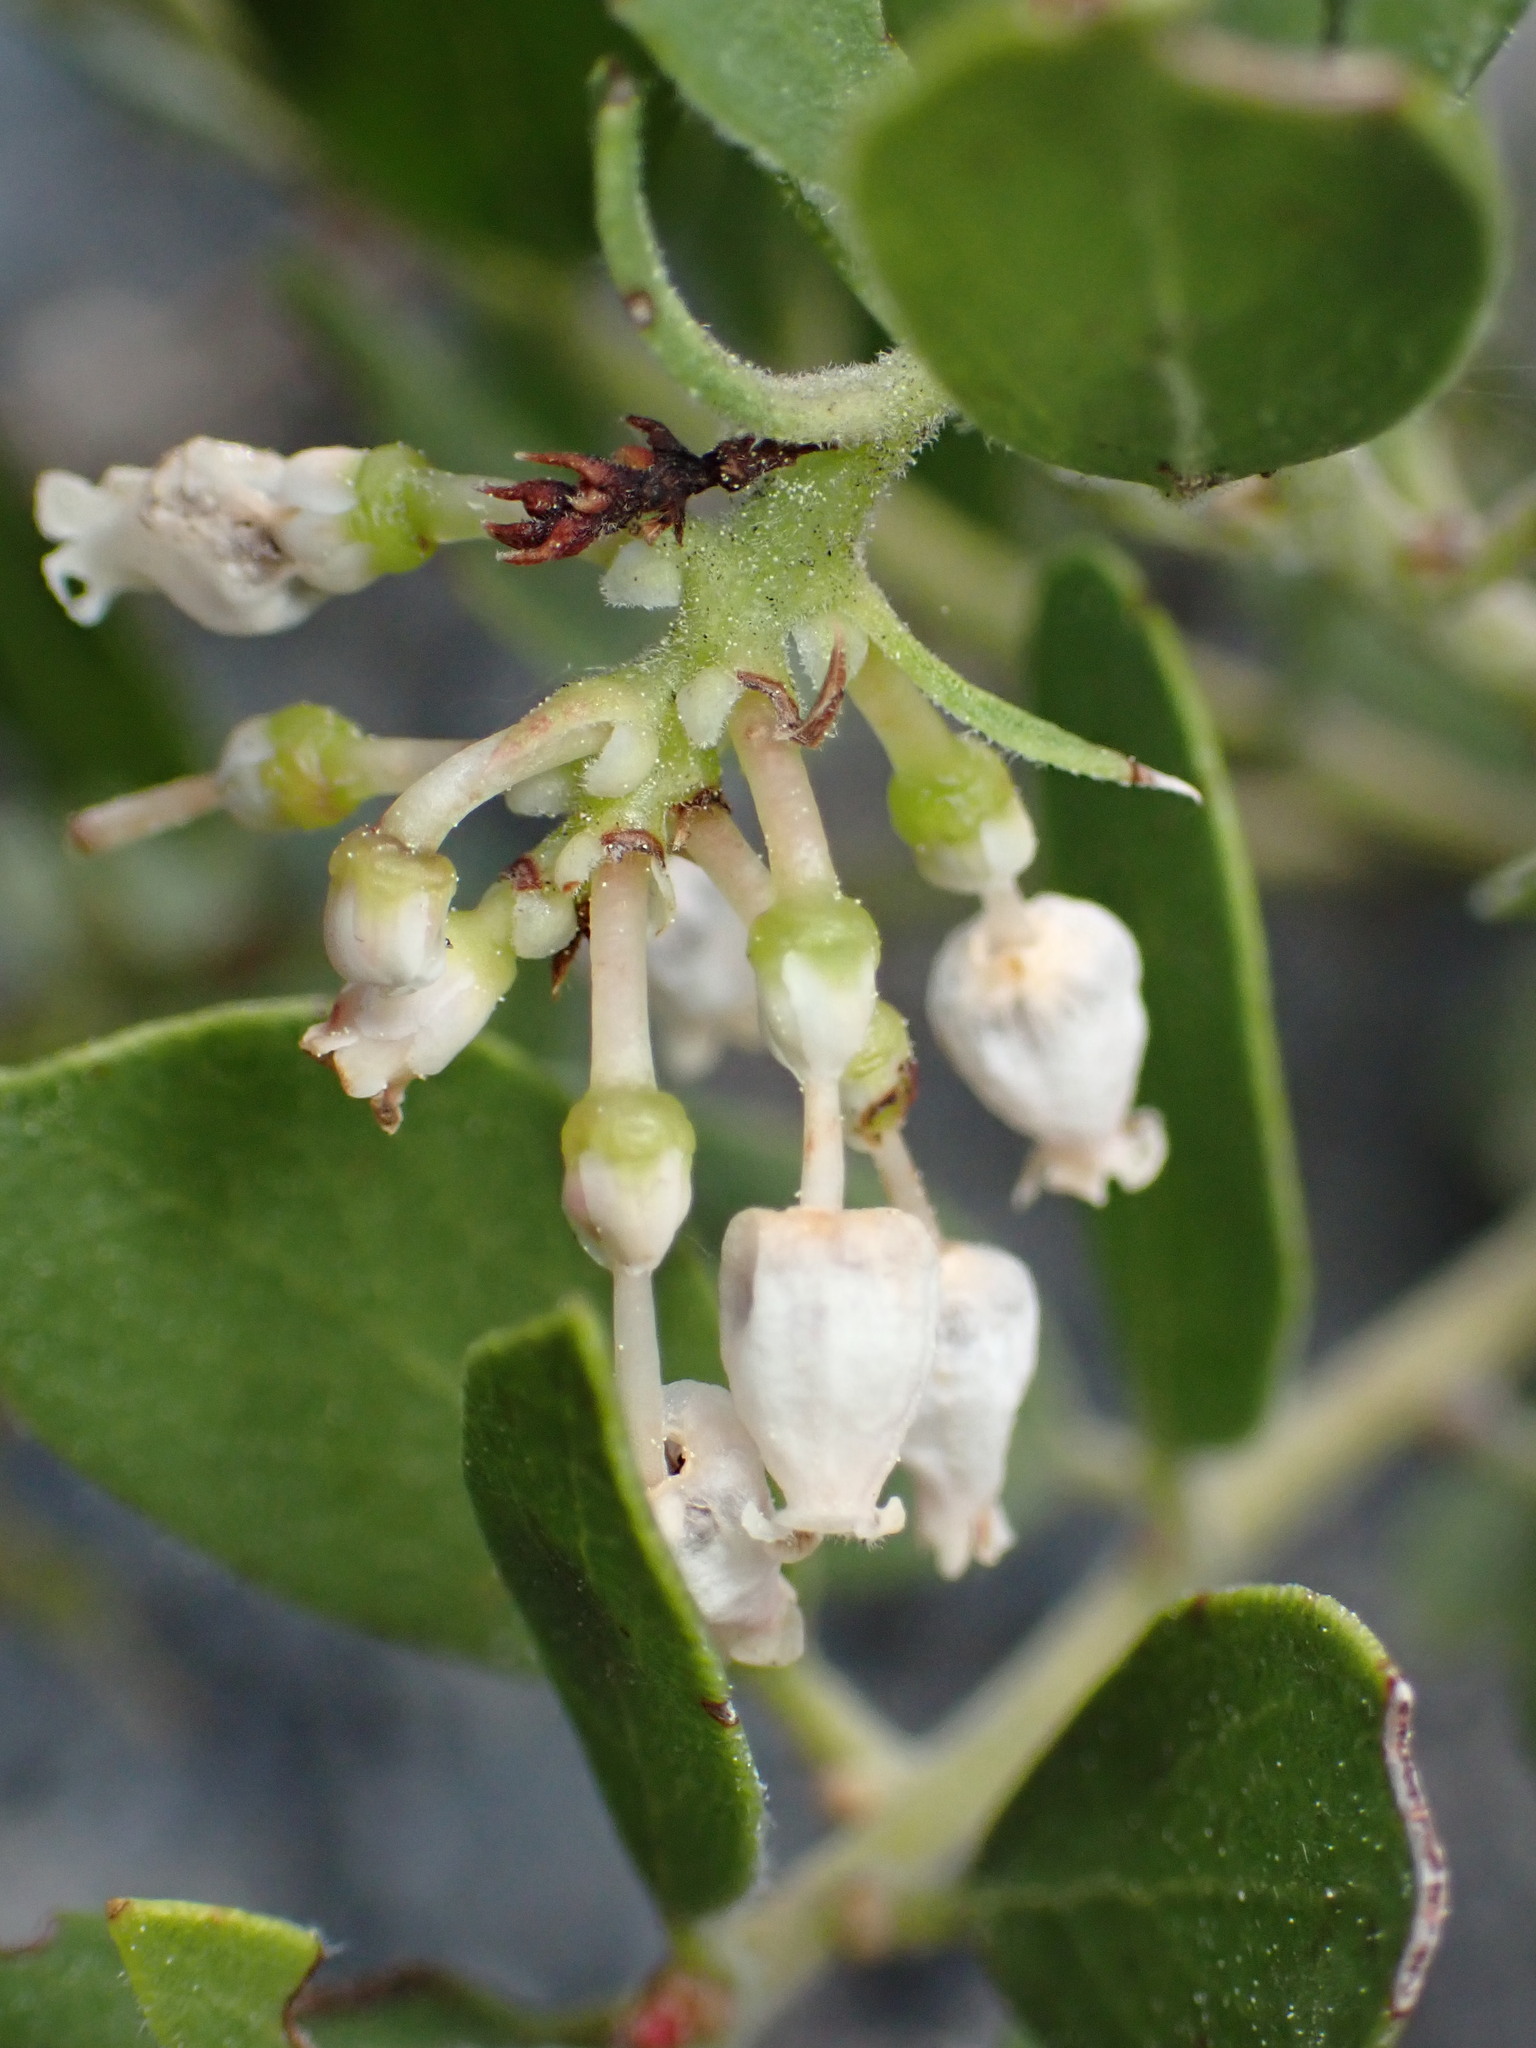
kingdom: Plantae
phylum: Tracheophyta
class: Magnoliopsida
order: Ericales
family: Ericaceae
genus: Arctostaphylos
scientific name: Arctostaphylos nevadensis
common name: Pinemat manzanita
